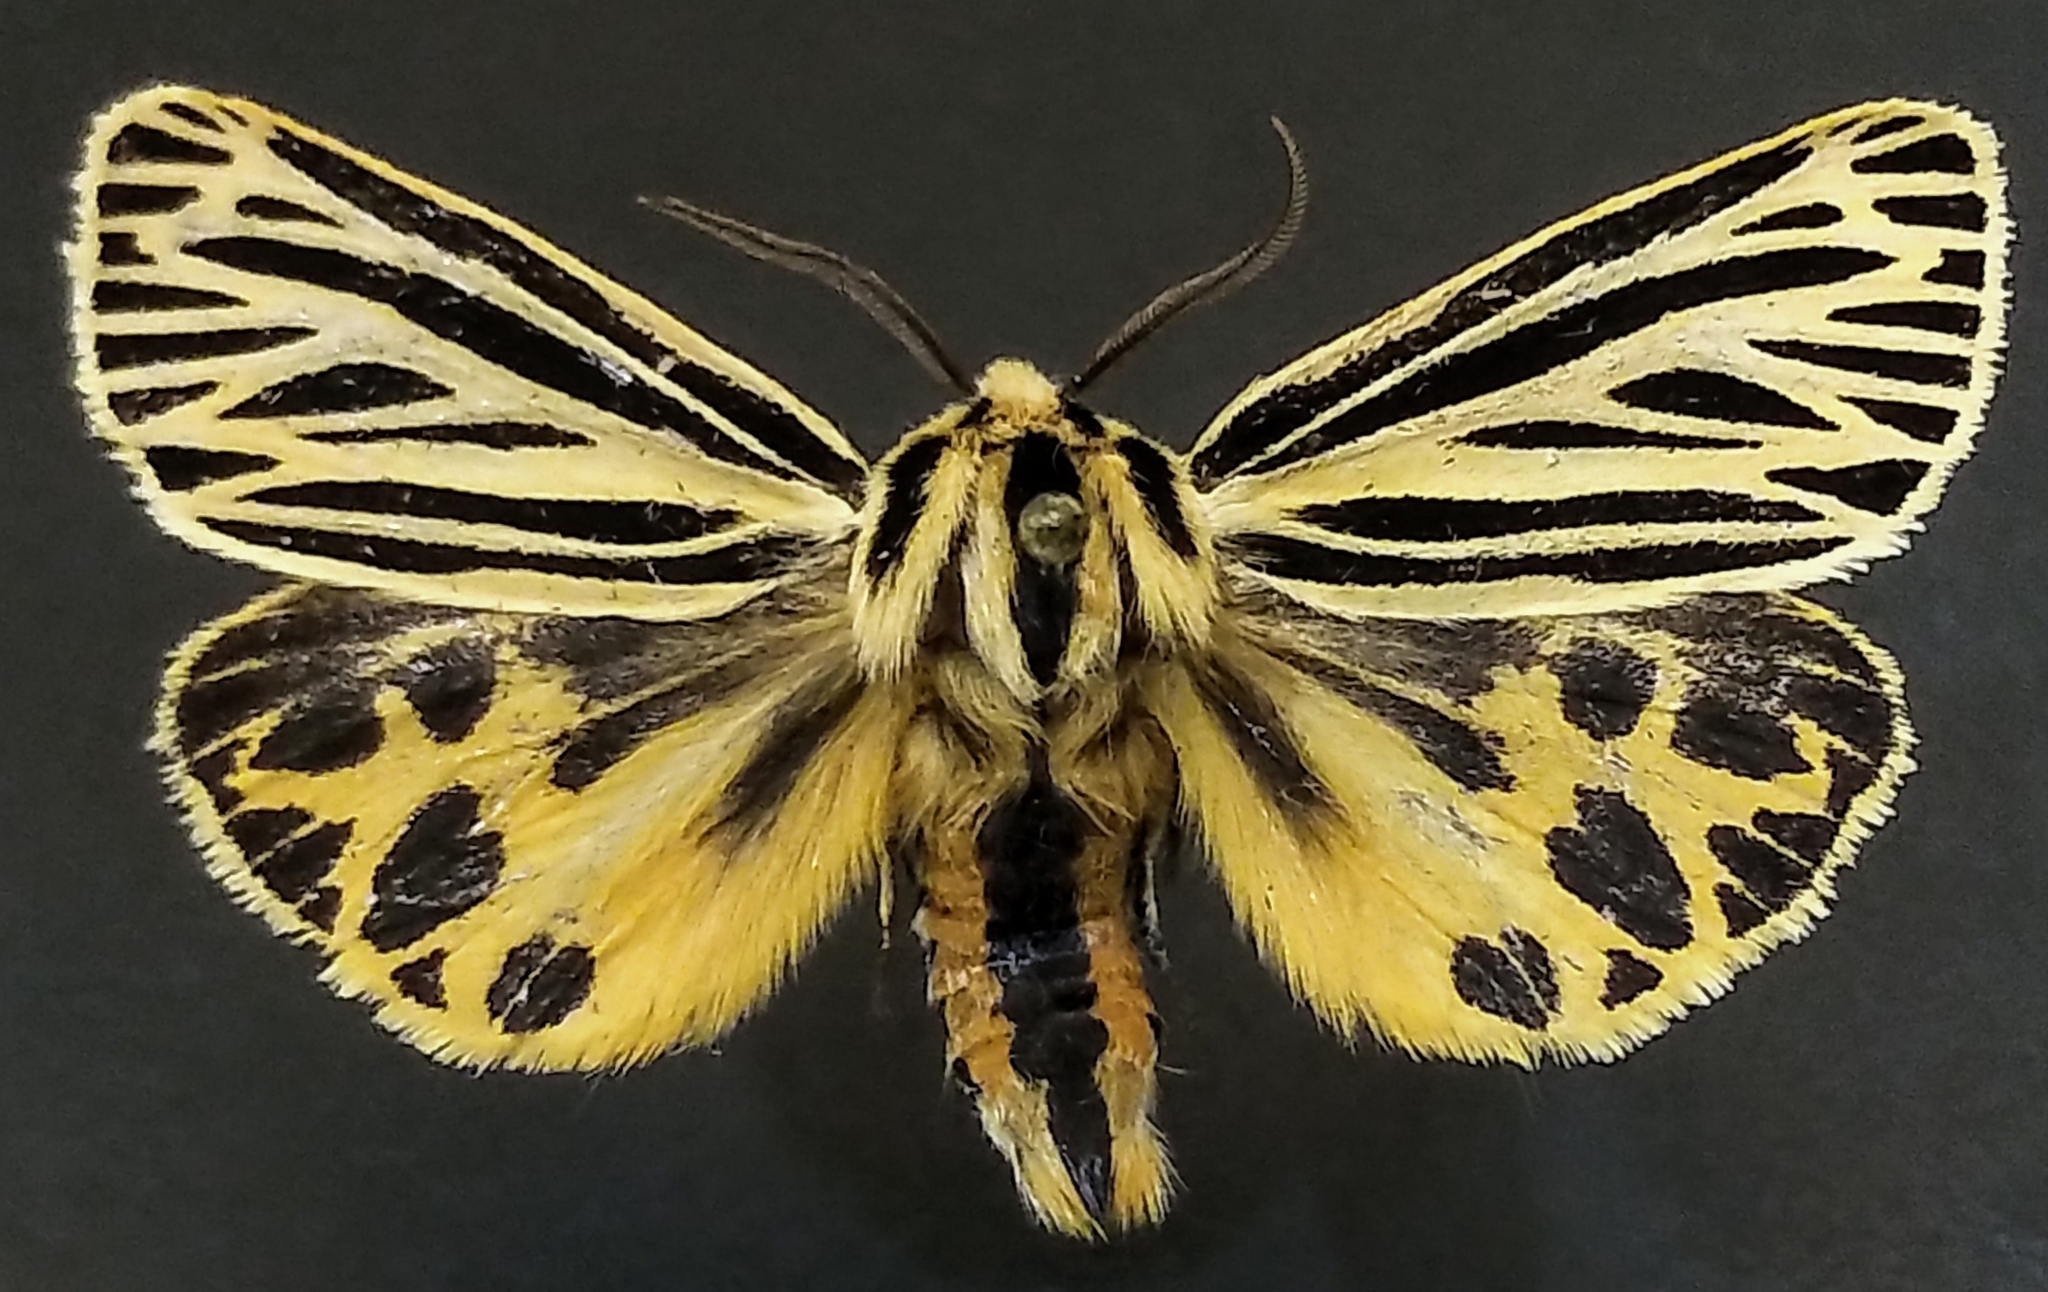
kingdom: Animalia
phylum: Arthropoda
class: Insecta
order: Lepidoptera
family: Erebidae
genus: Grammia
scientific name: Grammia virguncula
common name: Little tiger moth
